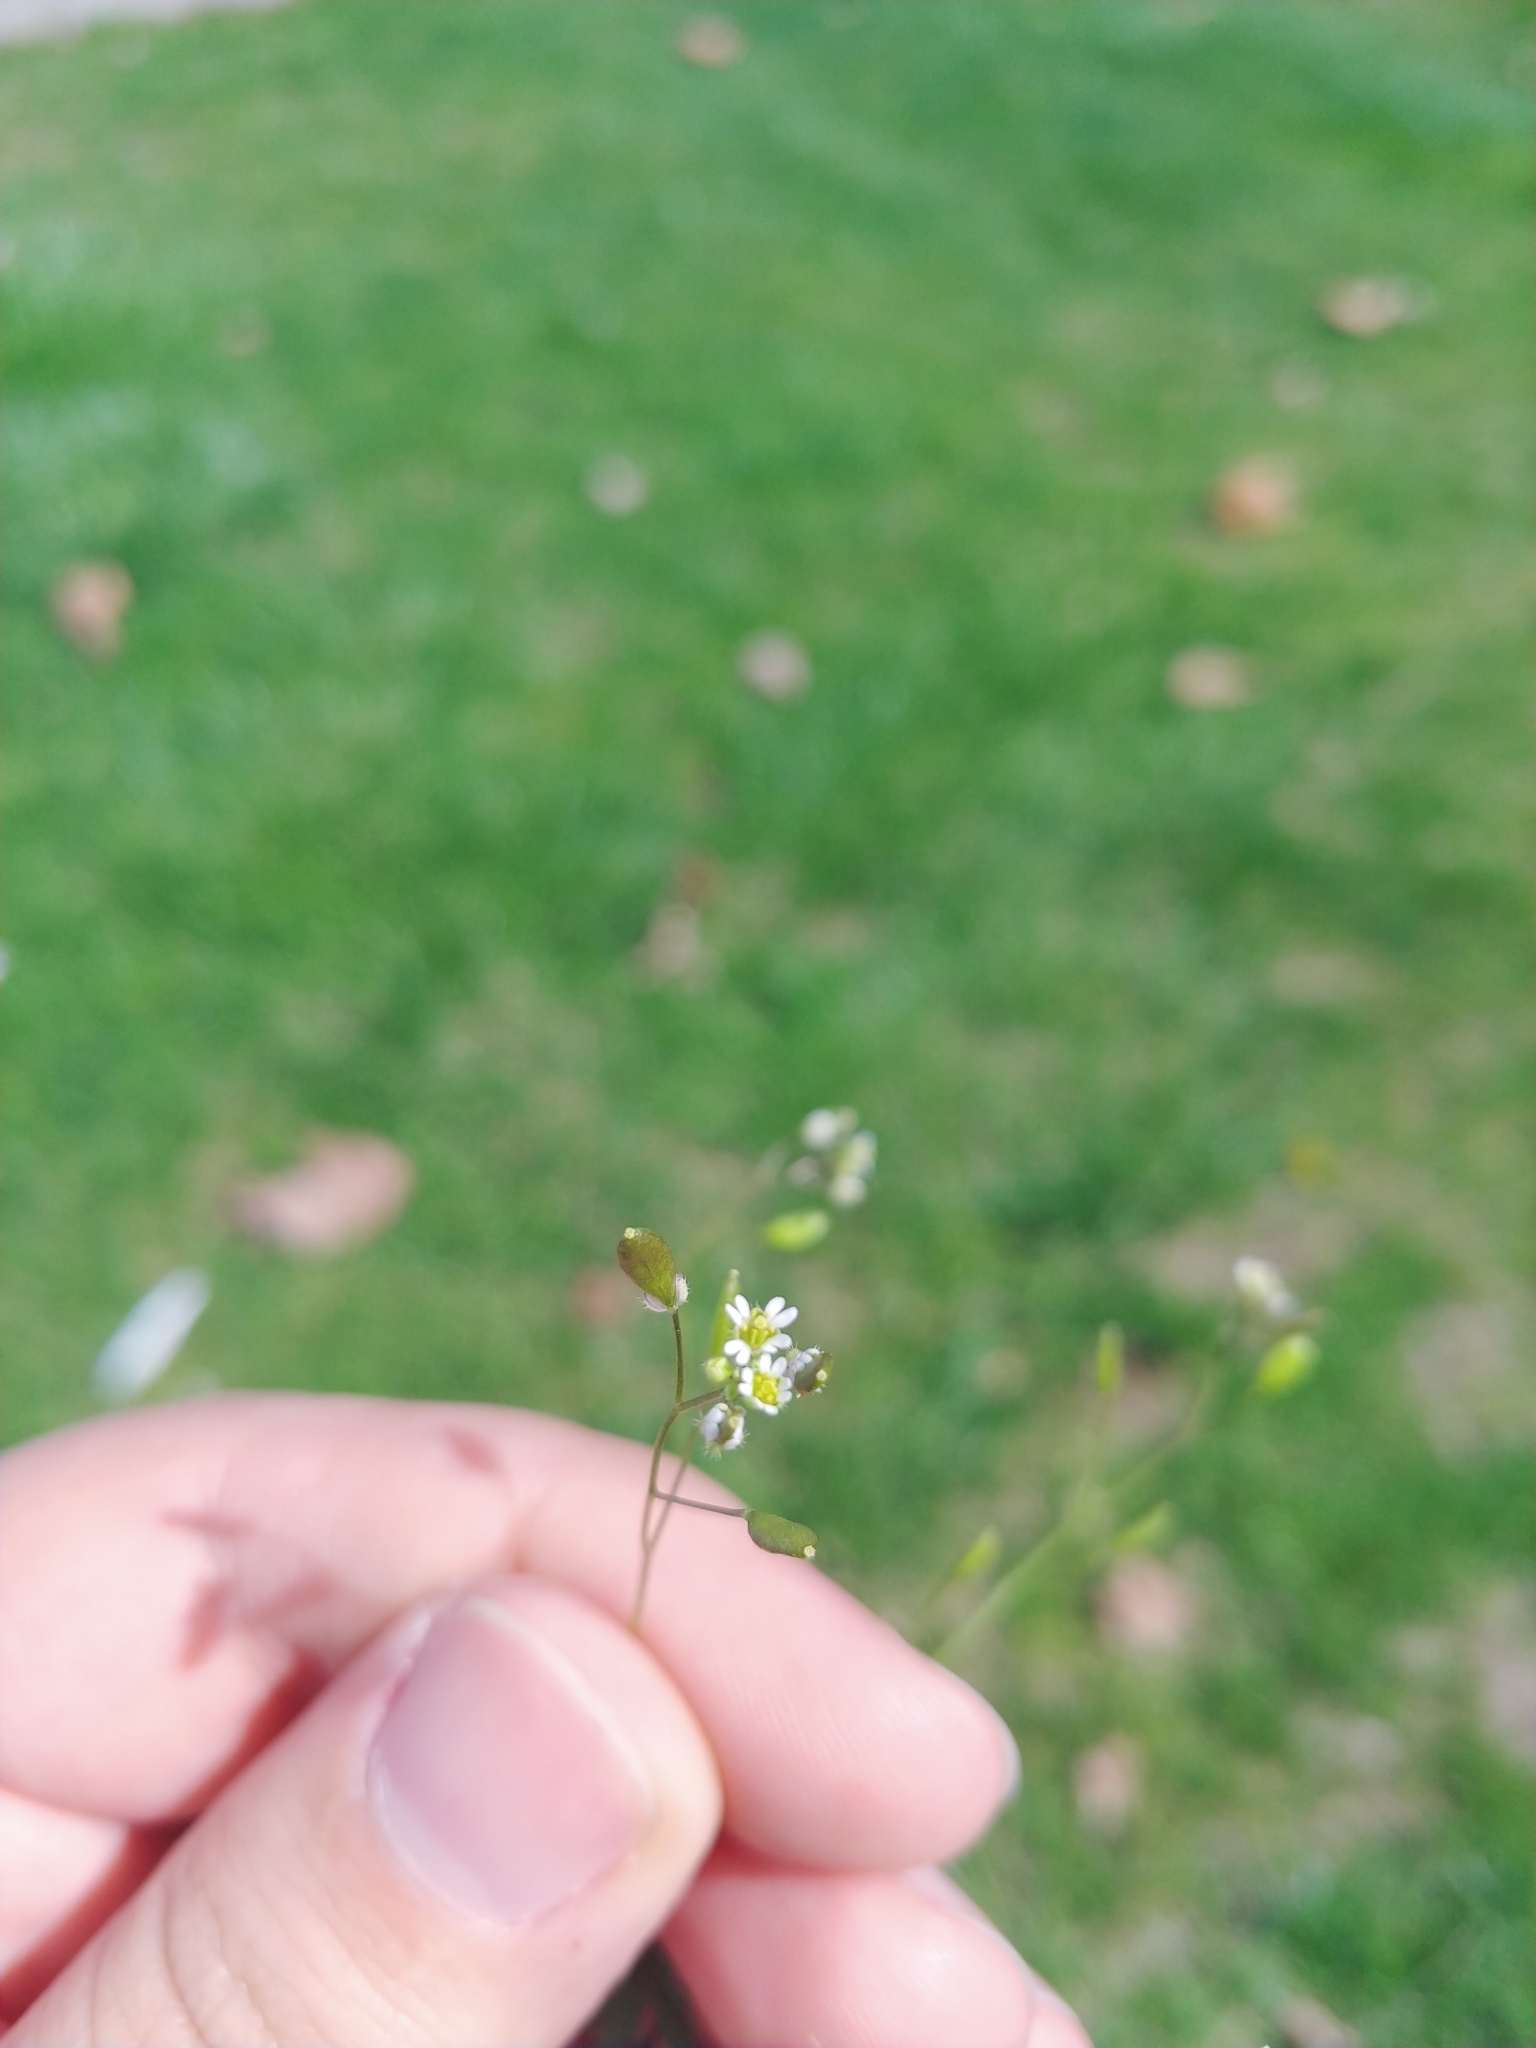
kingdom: Plantae
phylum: Tracheophyta
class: Magnoliopsida
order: Brassicales
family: Brassicaceae
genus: Draba
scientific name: Draba verna
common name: Spring draba
